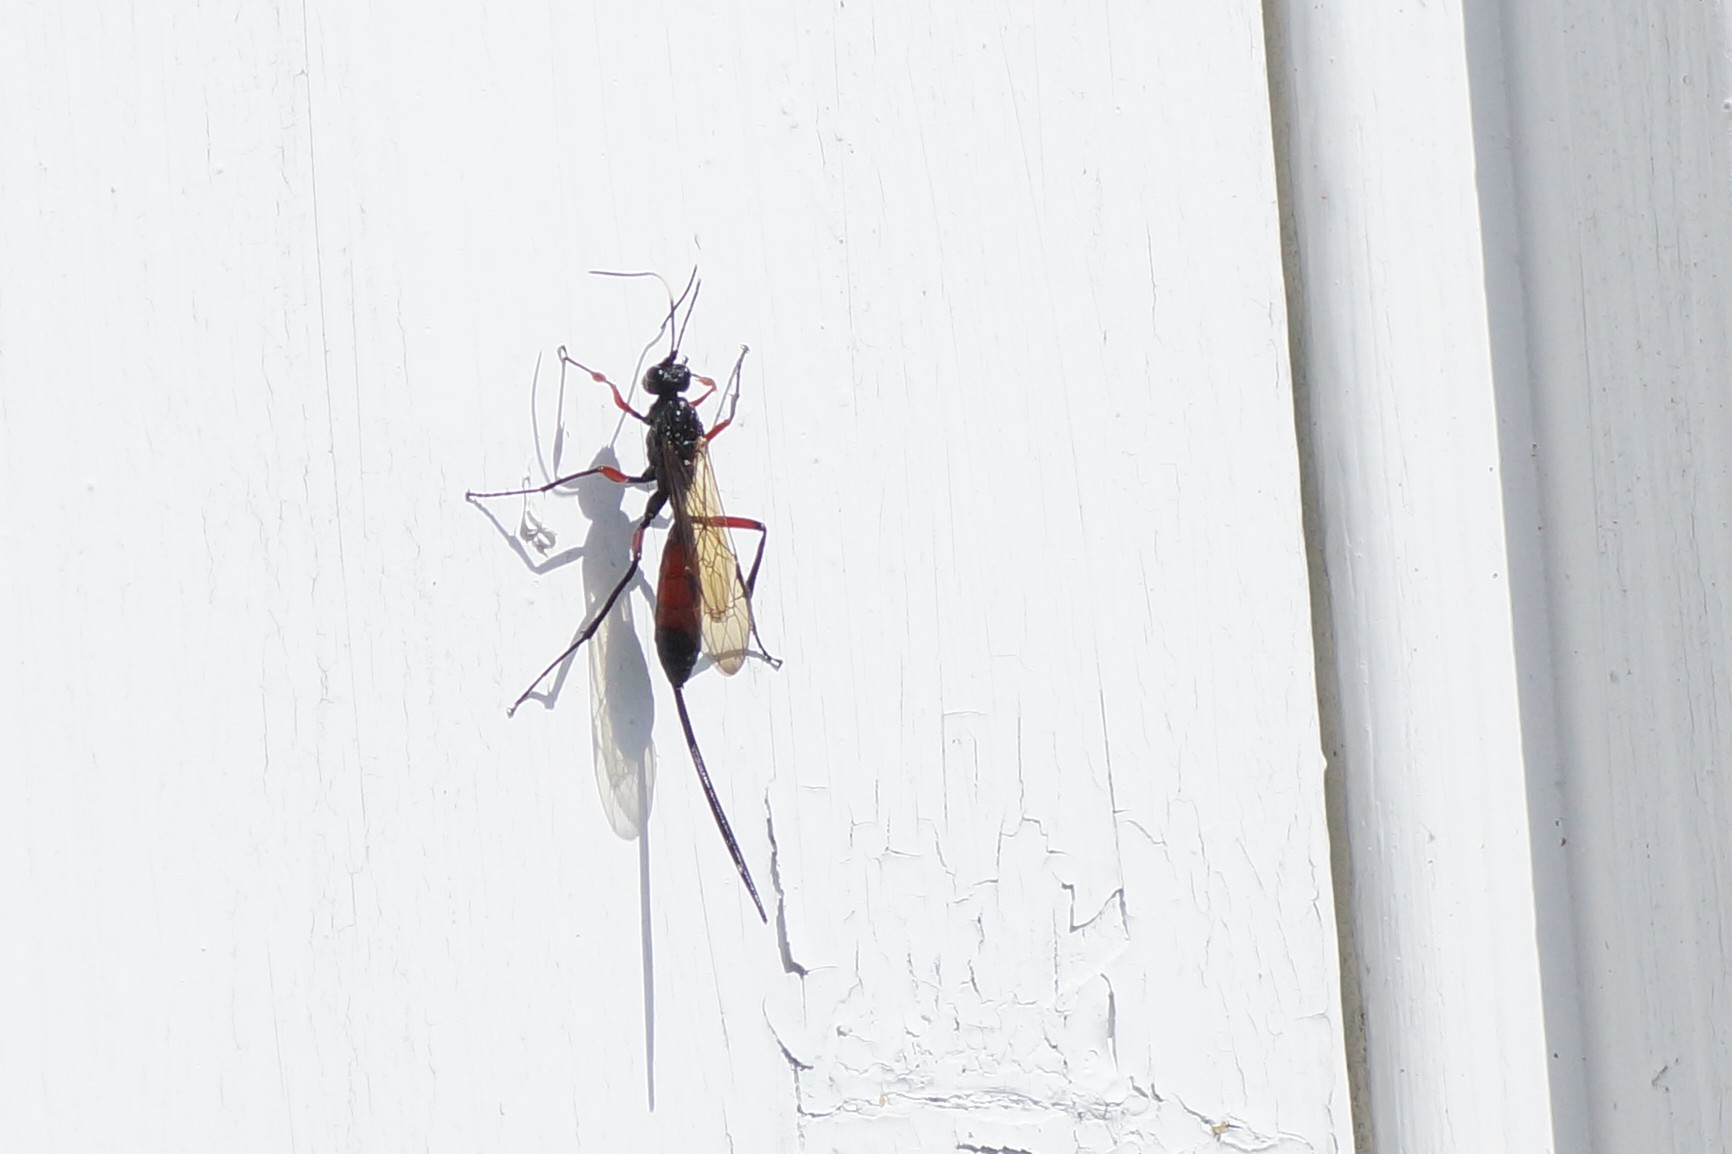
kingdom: Animalia
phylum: Arthropoda
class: Insecta
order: Hymenoptera
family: Ichneumonidae
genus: Echthrus
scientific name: Echthrus reluctator
